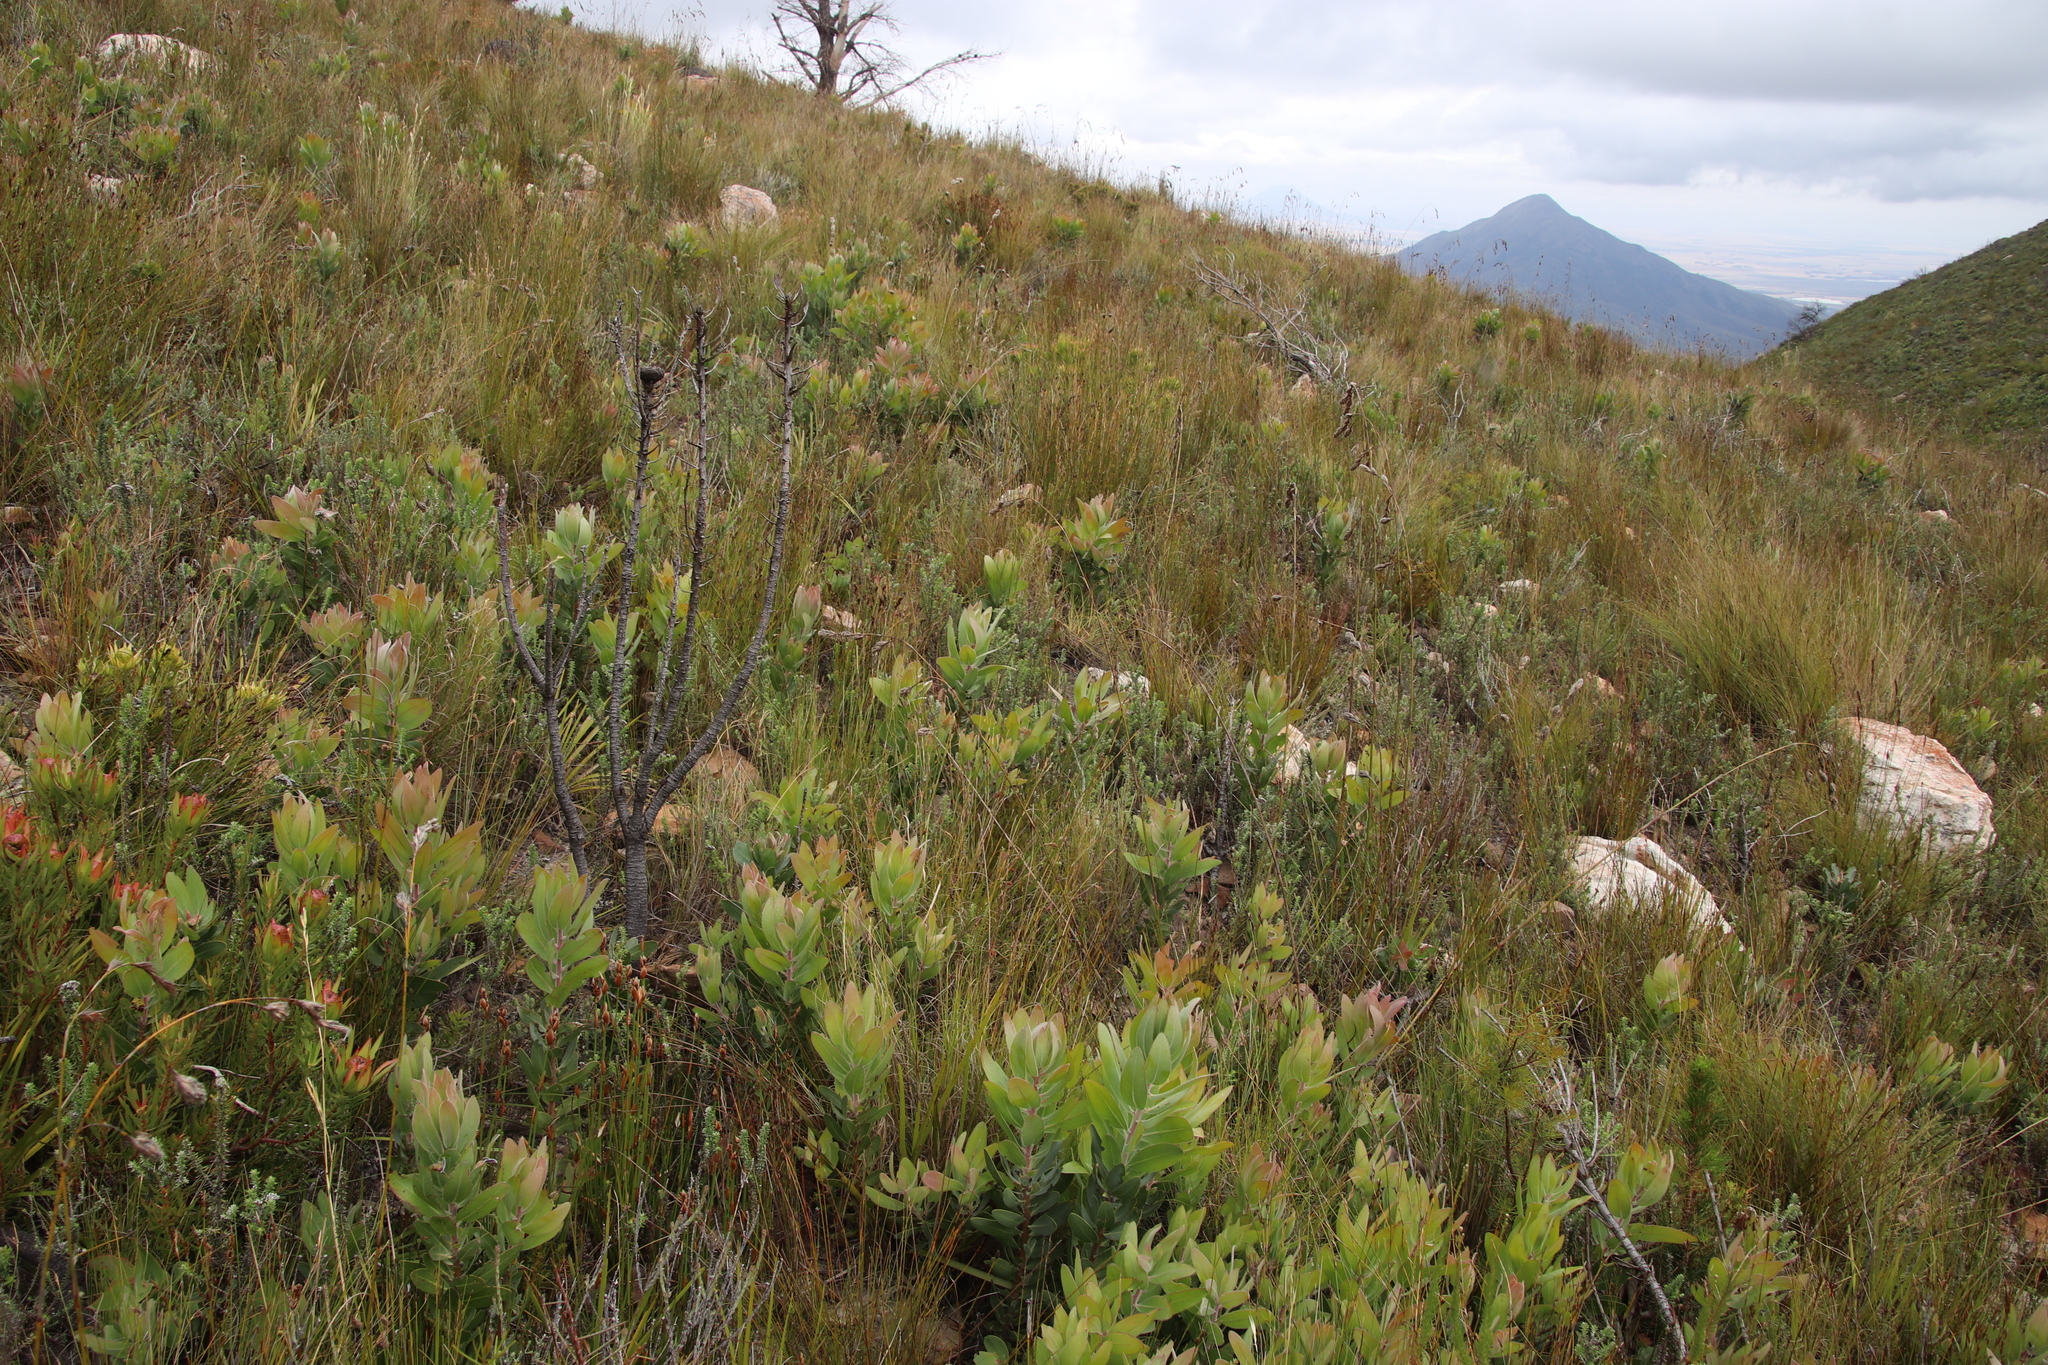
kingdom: Plantae
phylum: Tracheophyta
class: Magnoliopsida
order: Proteales
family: Proteaceae
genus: Protea
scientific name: Protea laurifolia
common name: Grey-leaf sugarbsh
